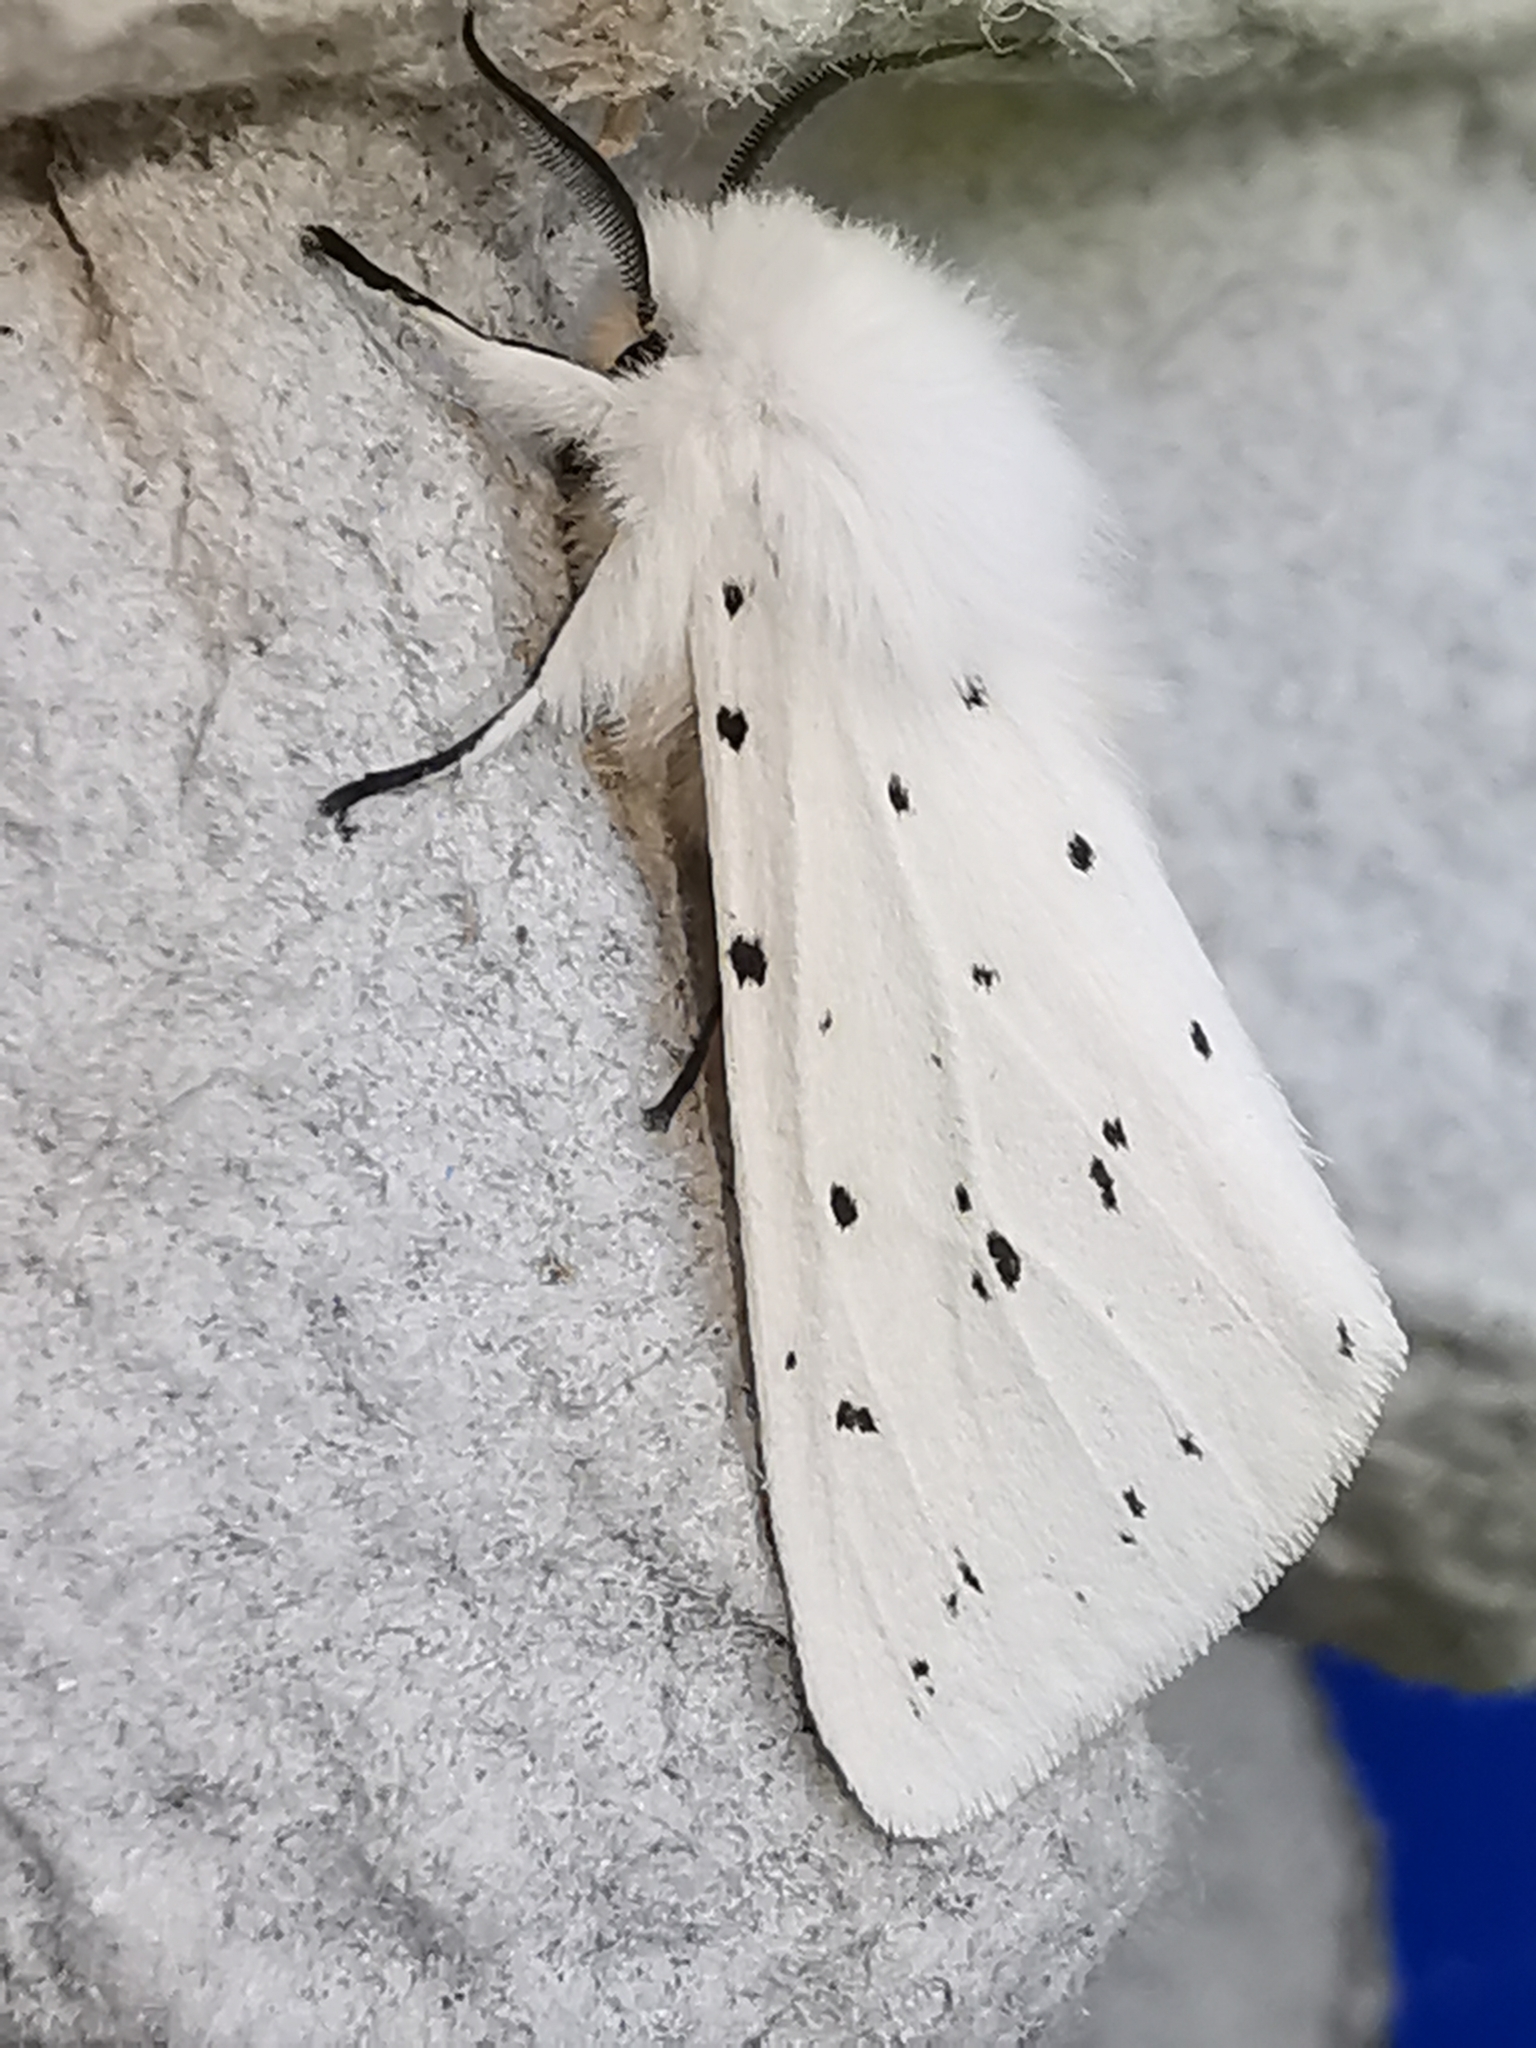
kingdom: Animalia
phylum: Arthropoda
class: Insecta
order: Lepidoptera
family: Erebidae
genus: Spilosoma
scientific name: Spilosoma lubricipeda
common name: White ermine
